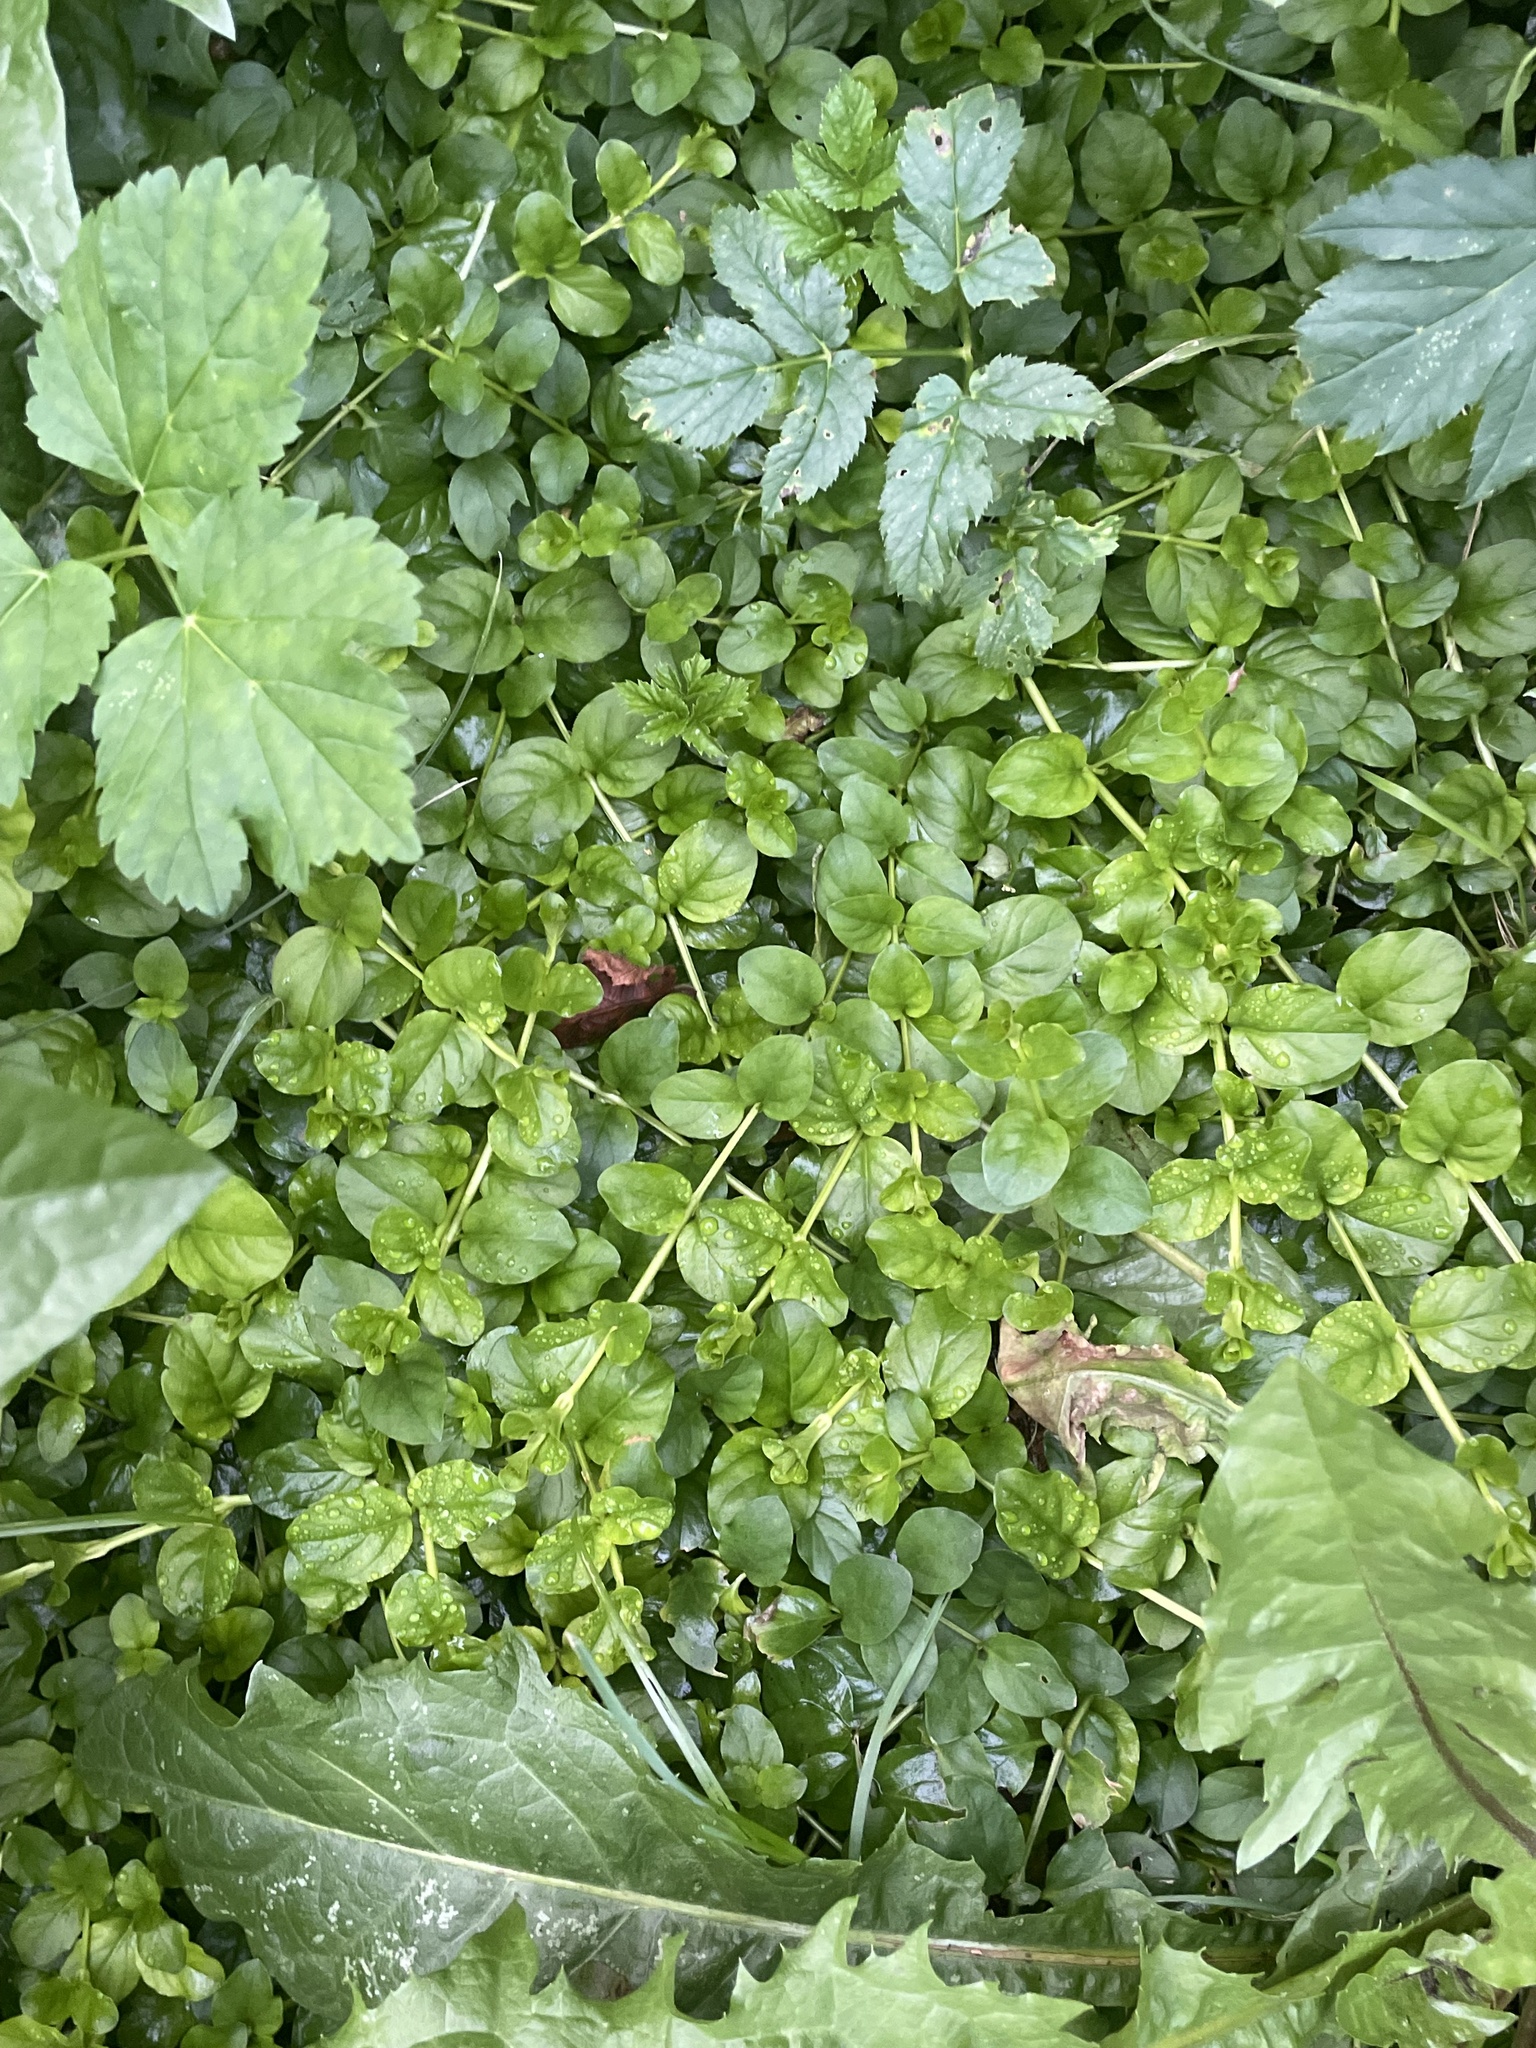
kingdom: Plantae
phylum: Tracheophyta
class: Magnoliopsida
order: Ericales
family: Primulaceae
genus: Lysimachia
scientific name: Lysimachia nummularia
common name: Moneywort
